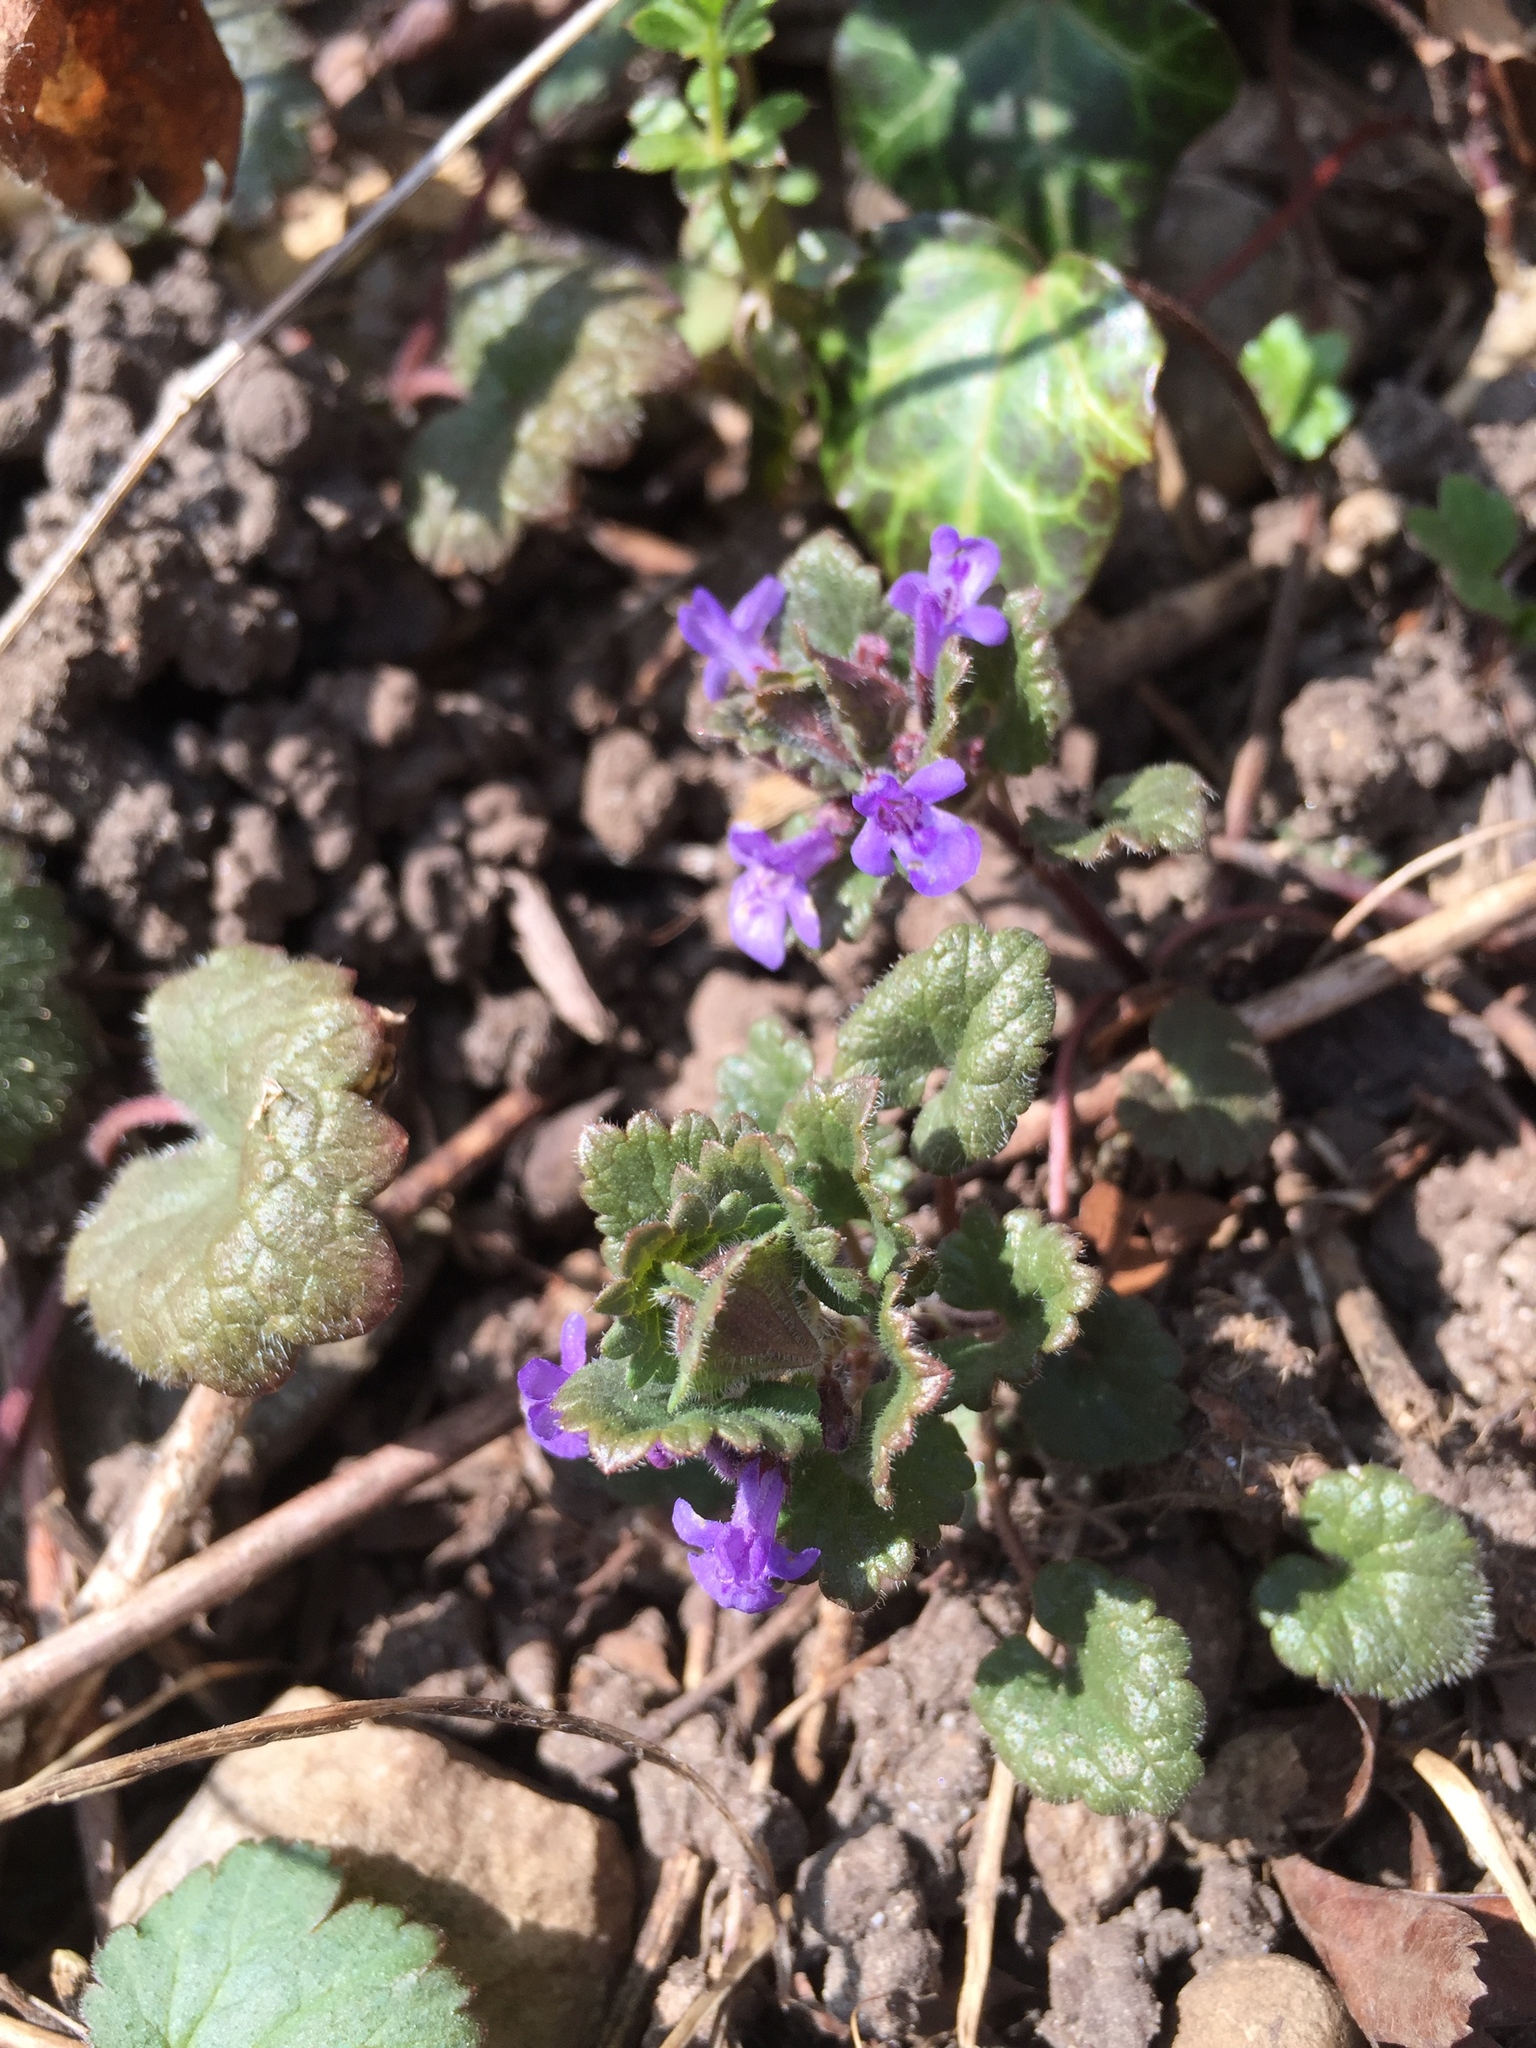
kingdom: Plantae
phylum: Tracheophyta
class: Magnoliopsida
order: Lamiales
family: Lamiaceae
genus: Glechoma
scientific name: Glechoma hederacea
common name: Ground ivy
